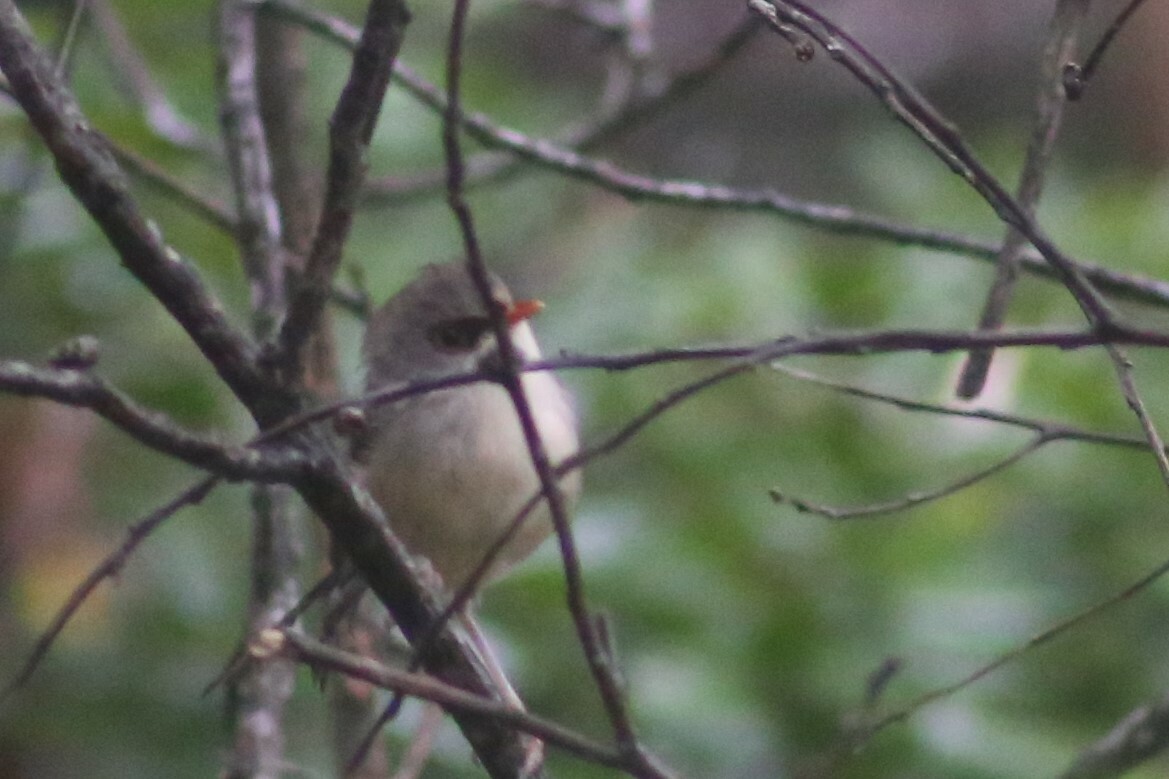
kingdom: Animalia
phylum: Chordata
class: Aves
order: Passeriformes
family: Maluridae
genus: Malurus
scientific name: Malurus lamberti
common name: Variegated fairywren
